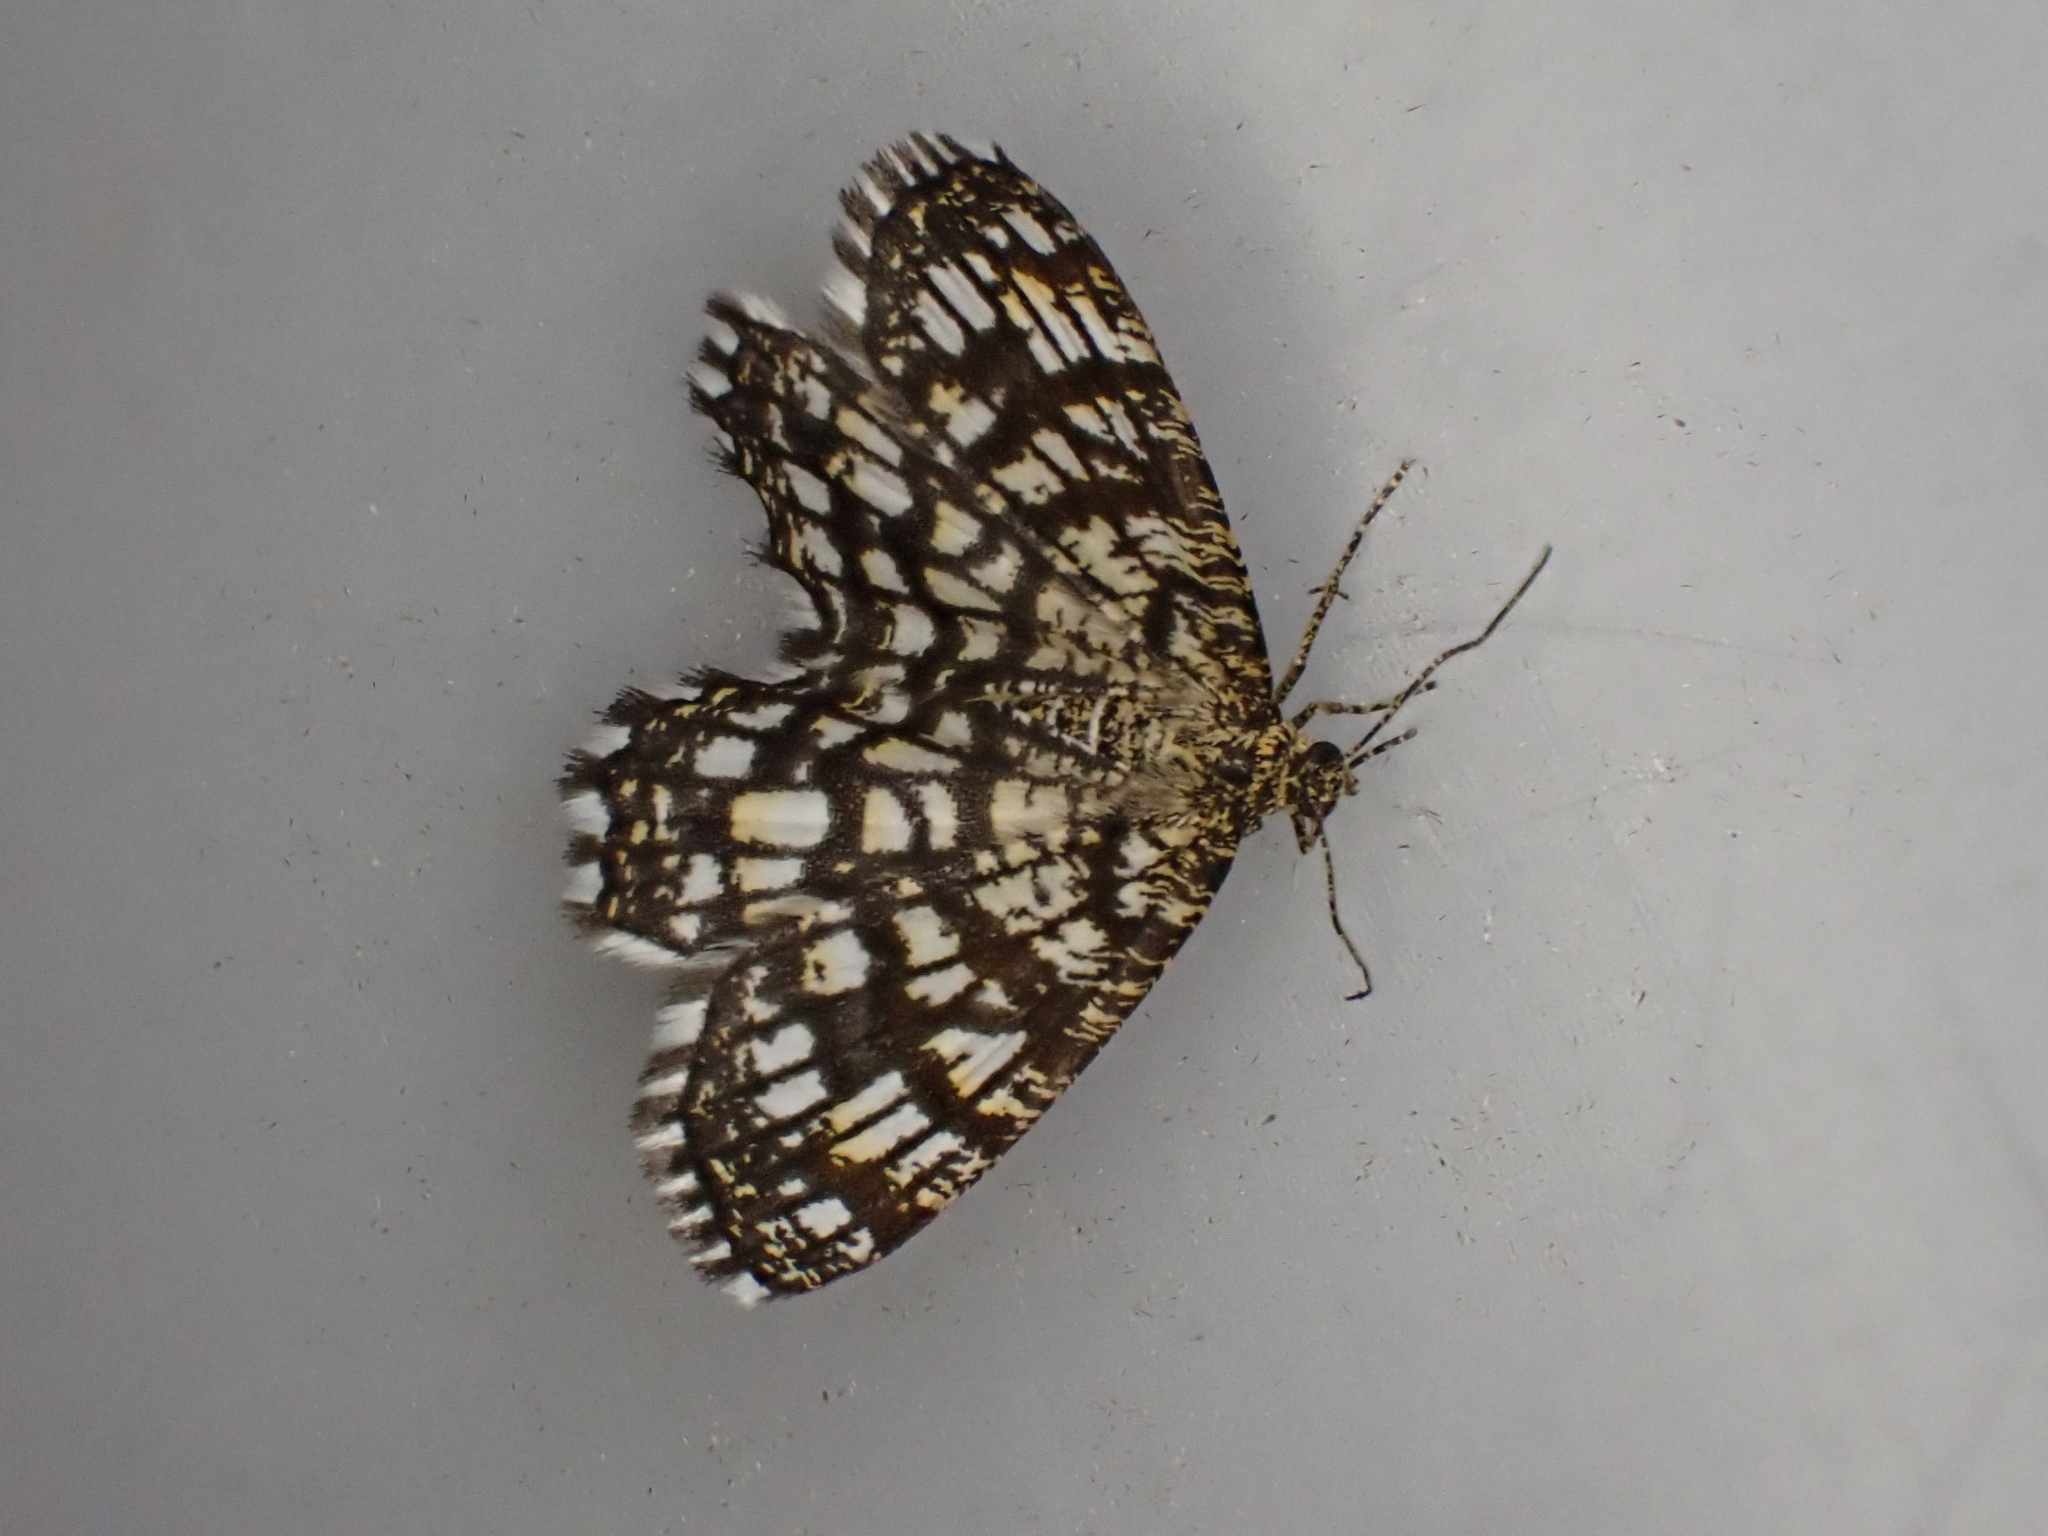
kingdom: Animalia
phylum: Arthropoda
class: Insecta
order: Lepidoptera
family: Geometridae
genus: Chiasmia
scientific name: Chiasmia clathrata
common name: Latticed heath
